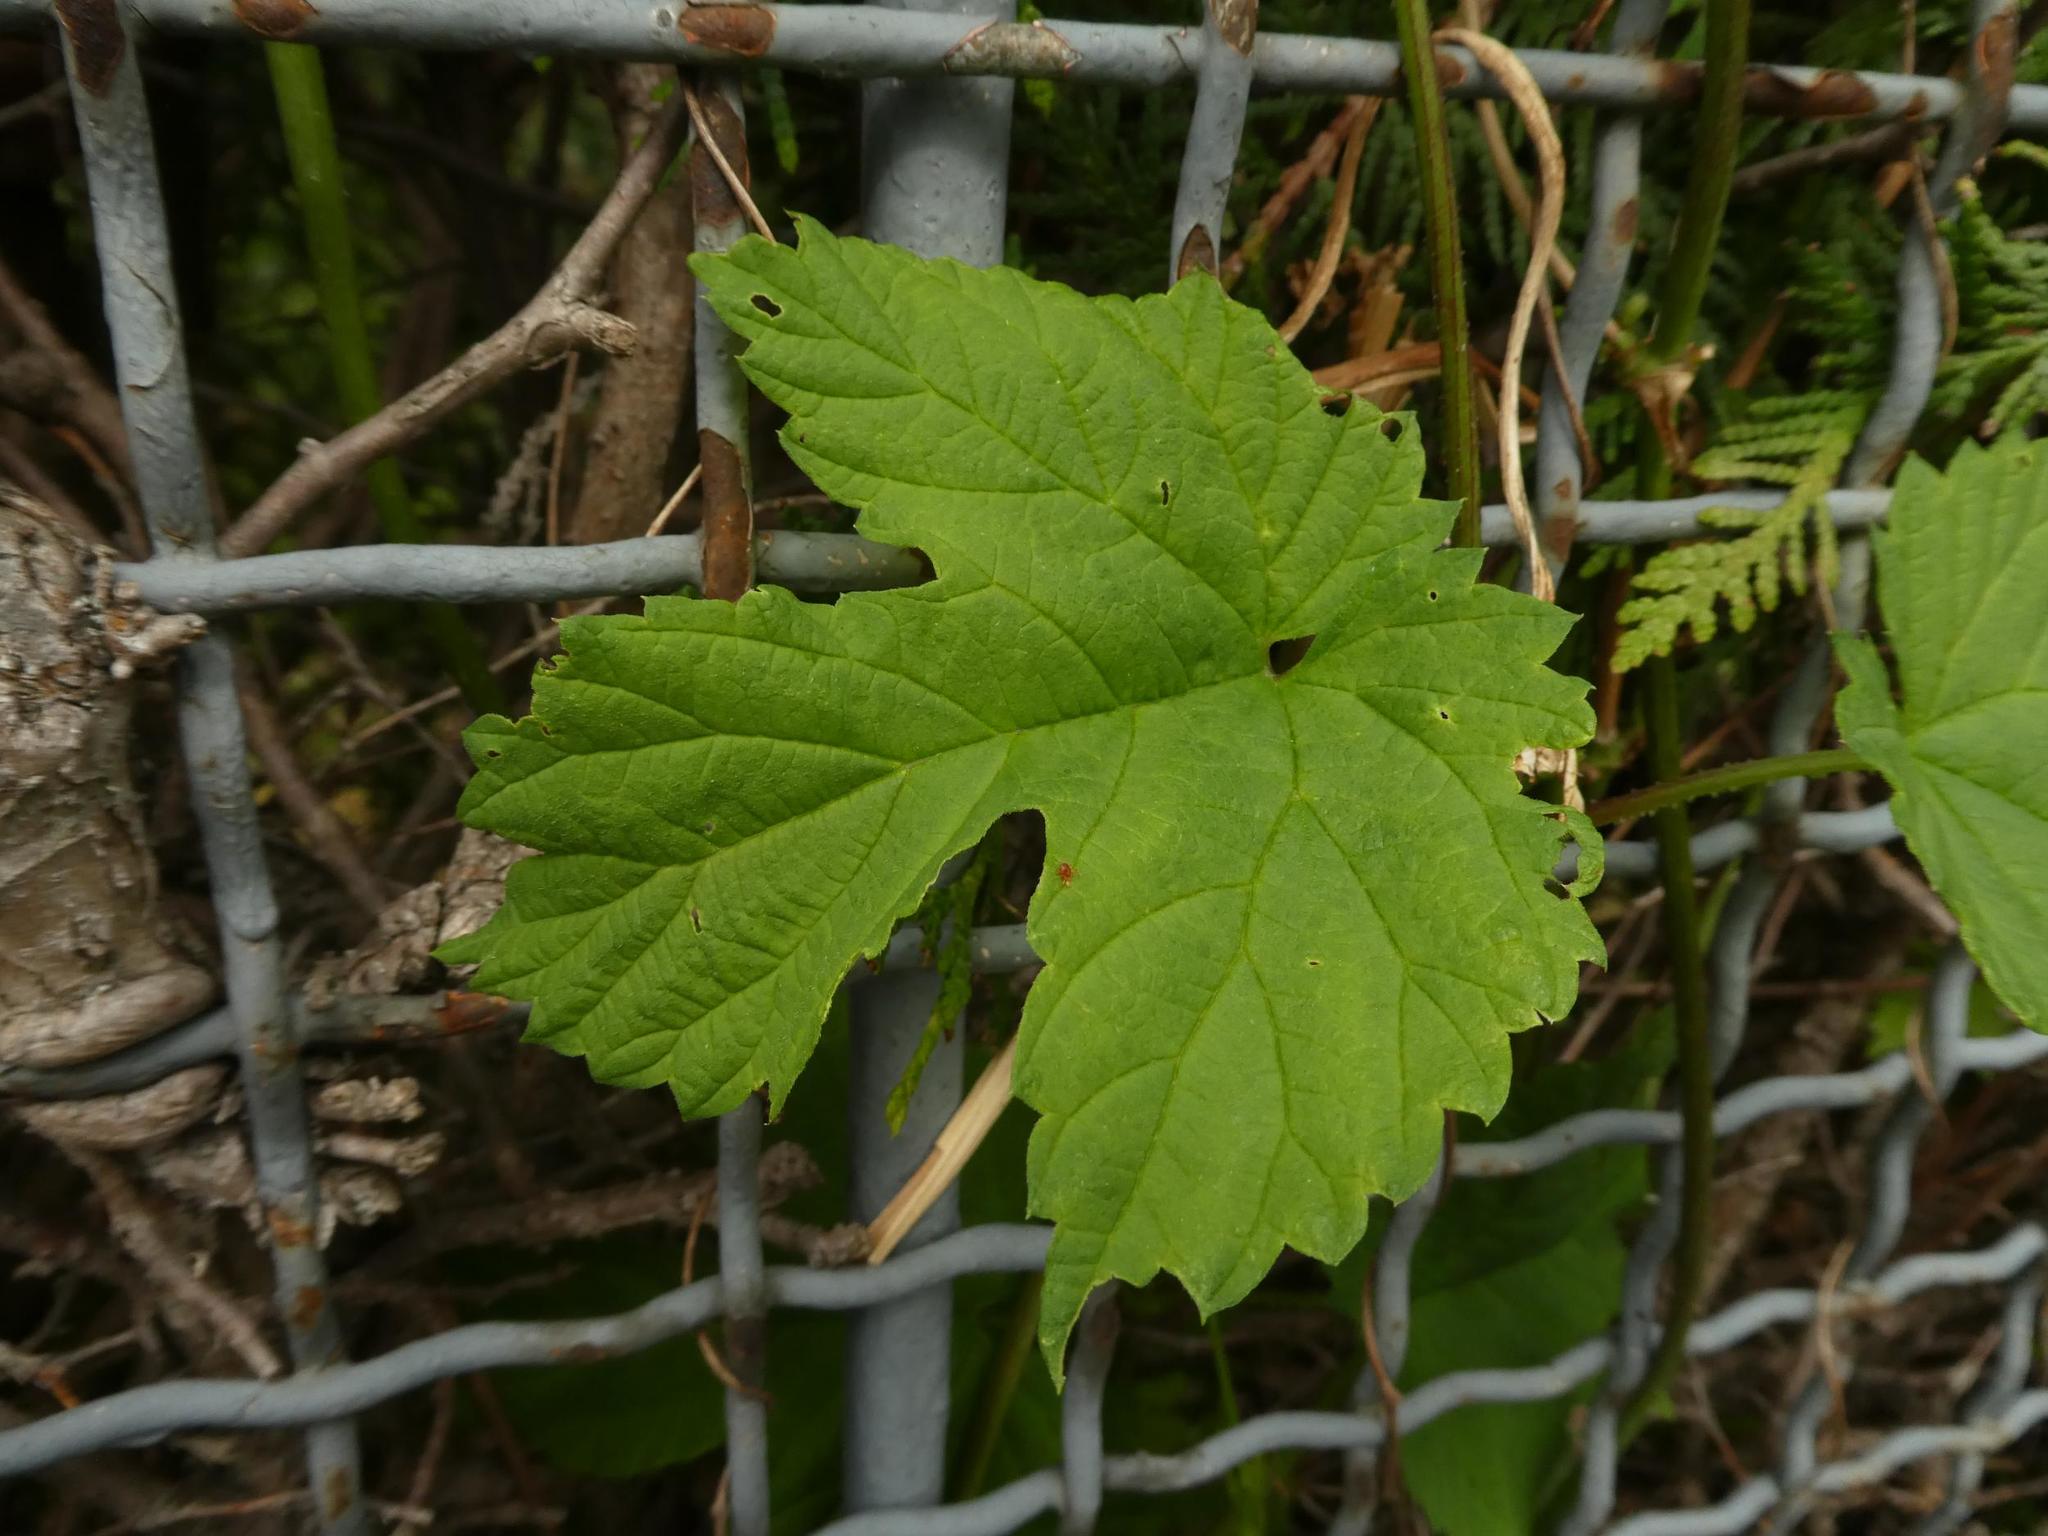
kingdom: Plantae
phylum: Tracheophyta
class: Magnoliopsida
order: Rosales
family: Cannabaceae
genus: Humulus
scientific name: Humulus lupulus
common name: Hop
